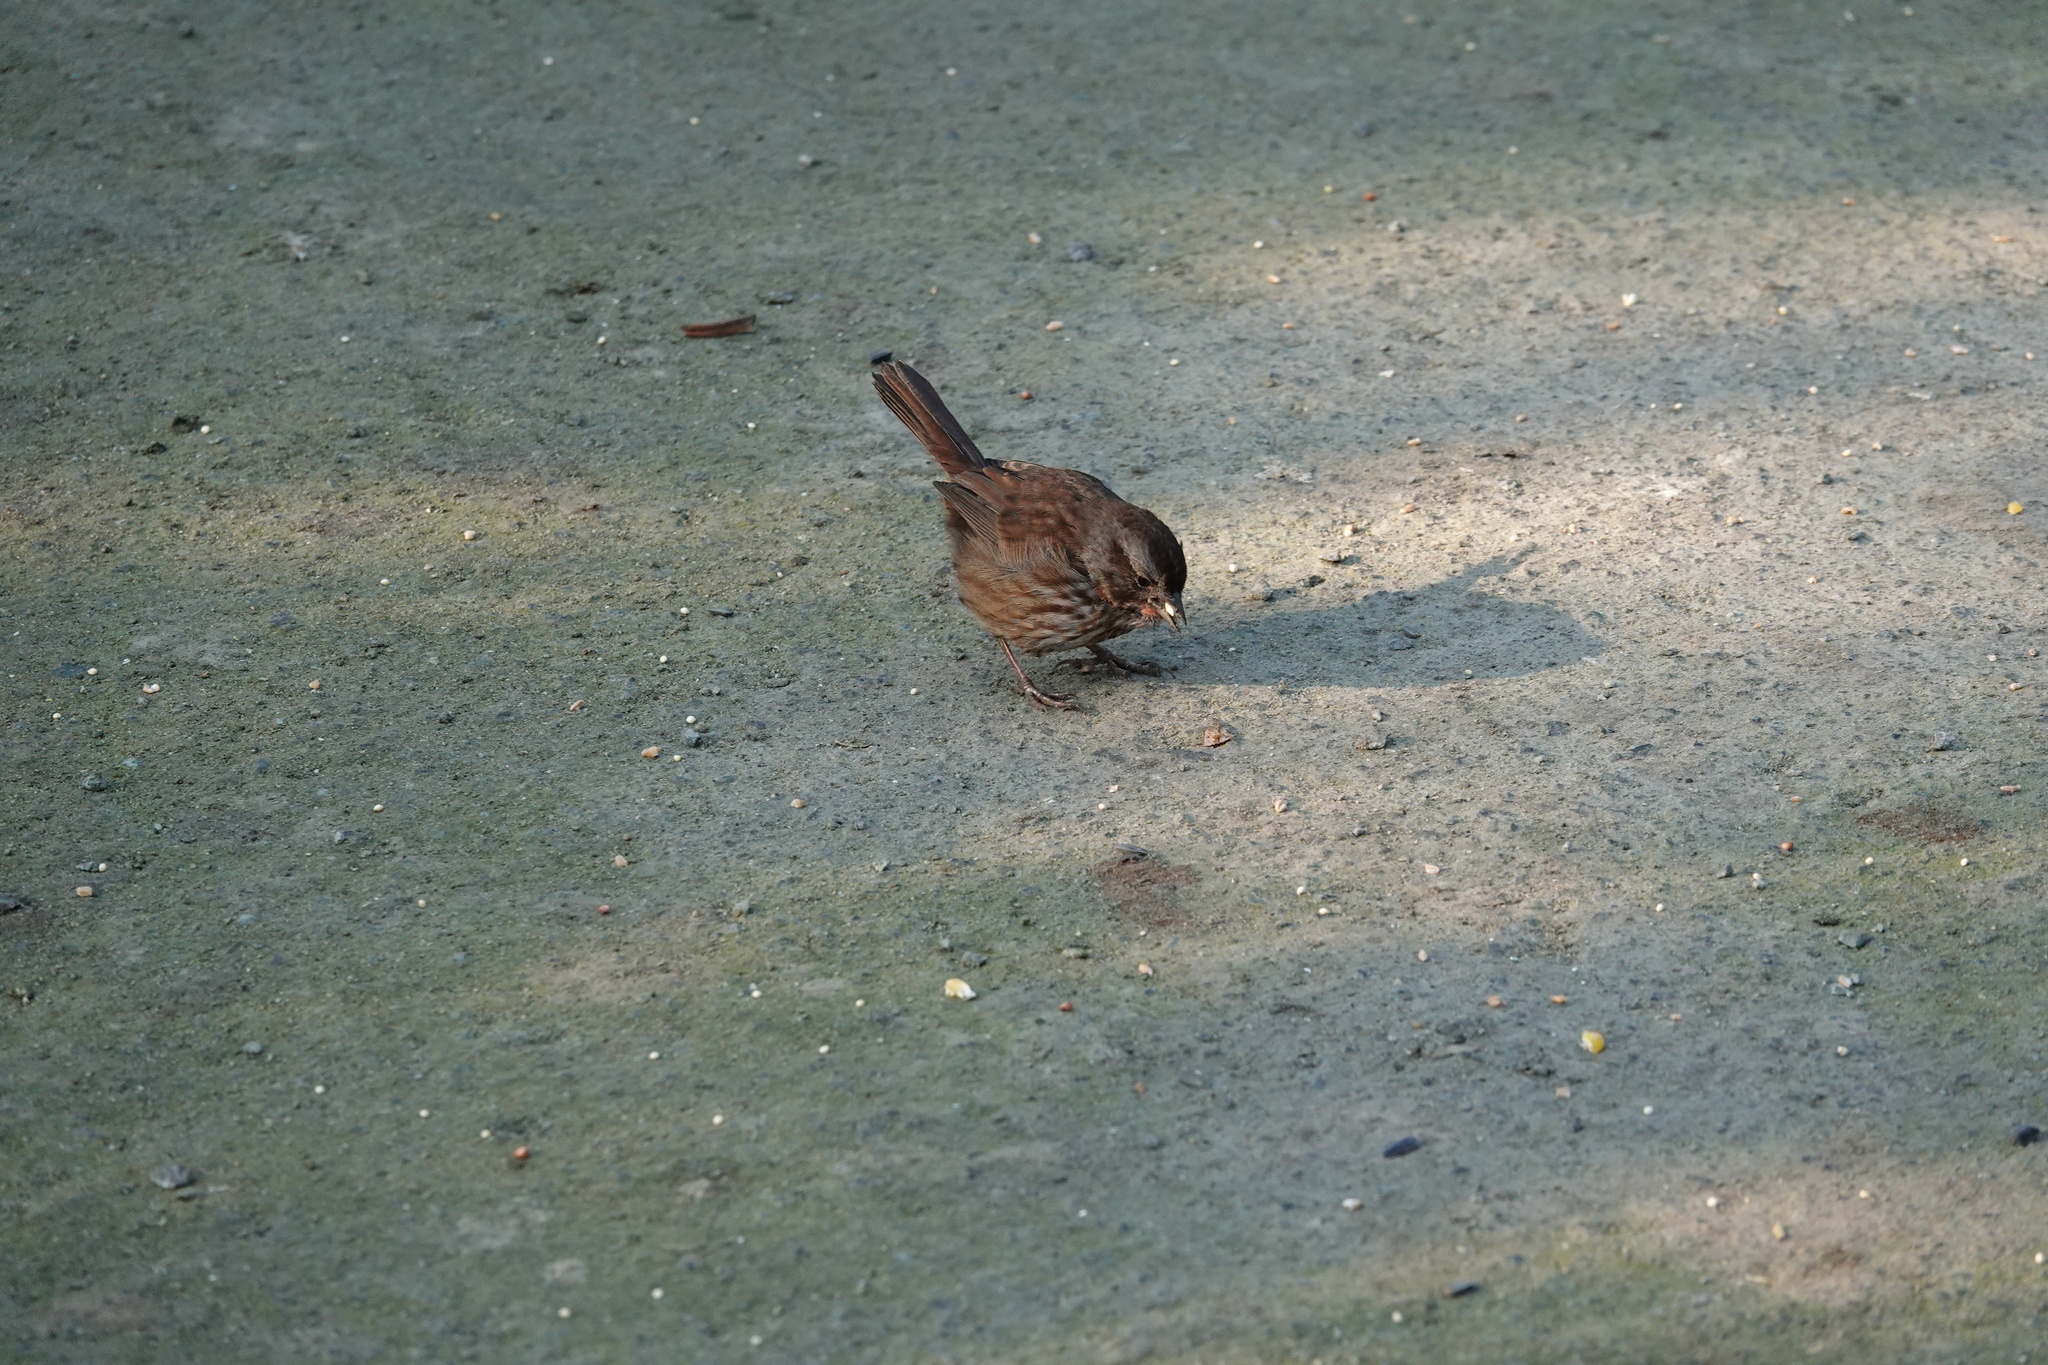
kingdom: Animalia
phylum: Chordata
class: Aves
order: Passeriformes
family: Passerellidae
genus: Melospiza
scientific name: Melospiza melodia
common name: Song sparrow
